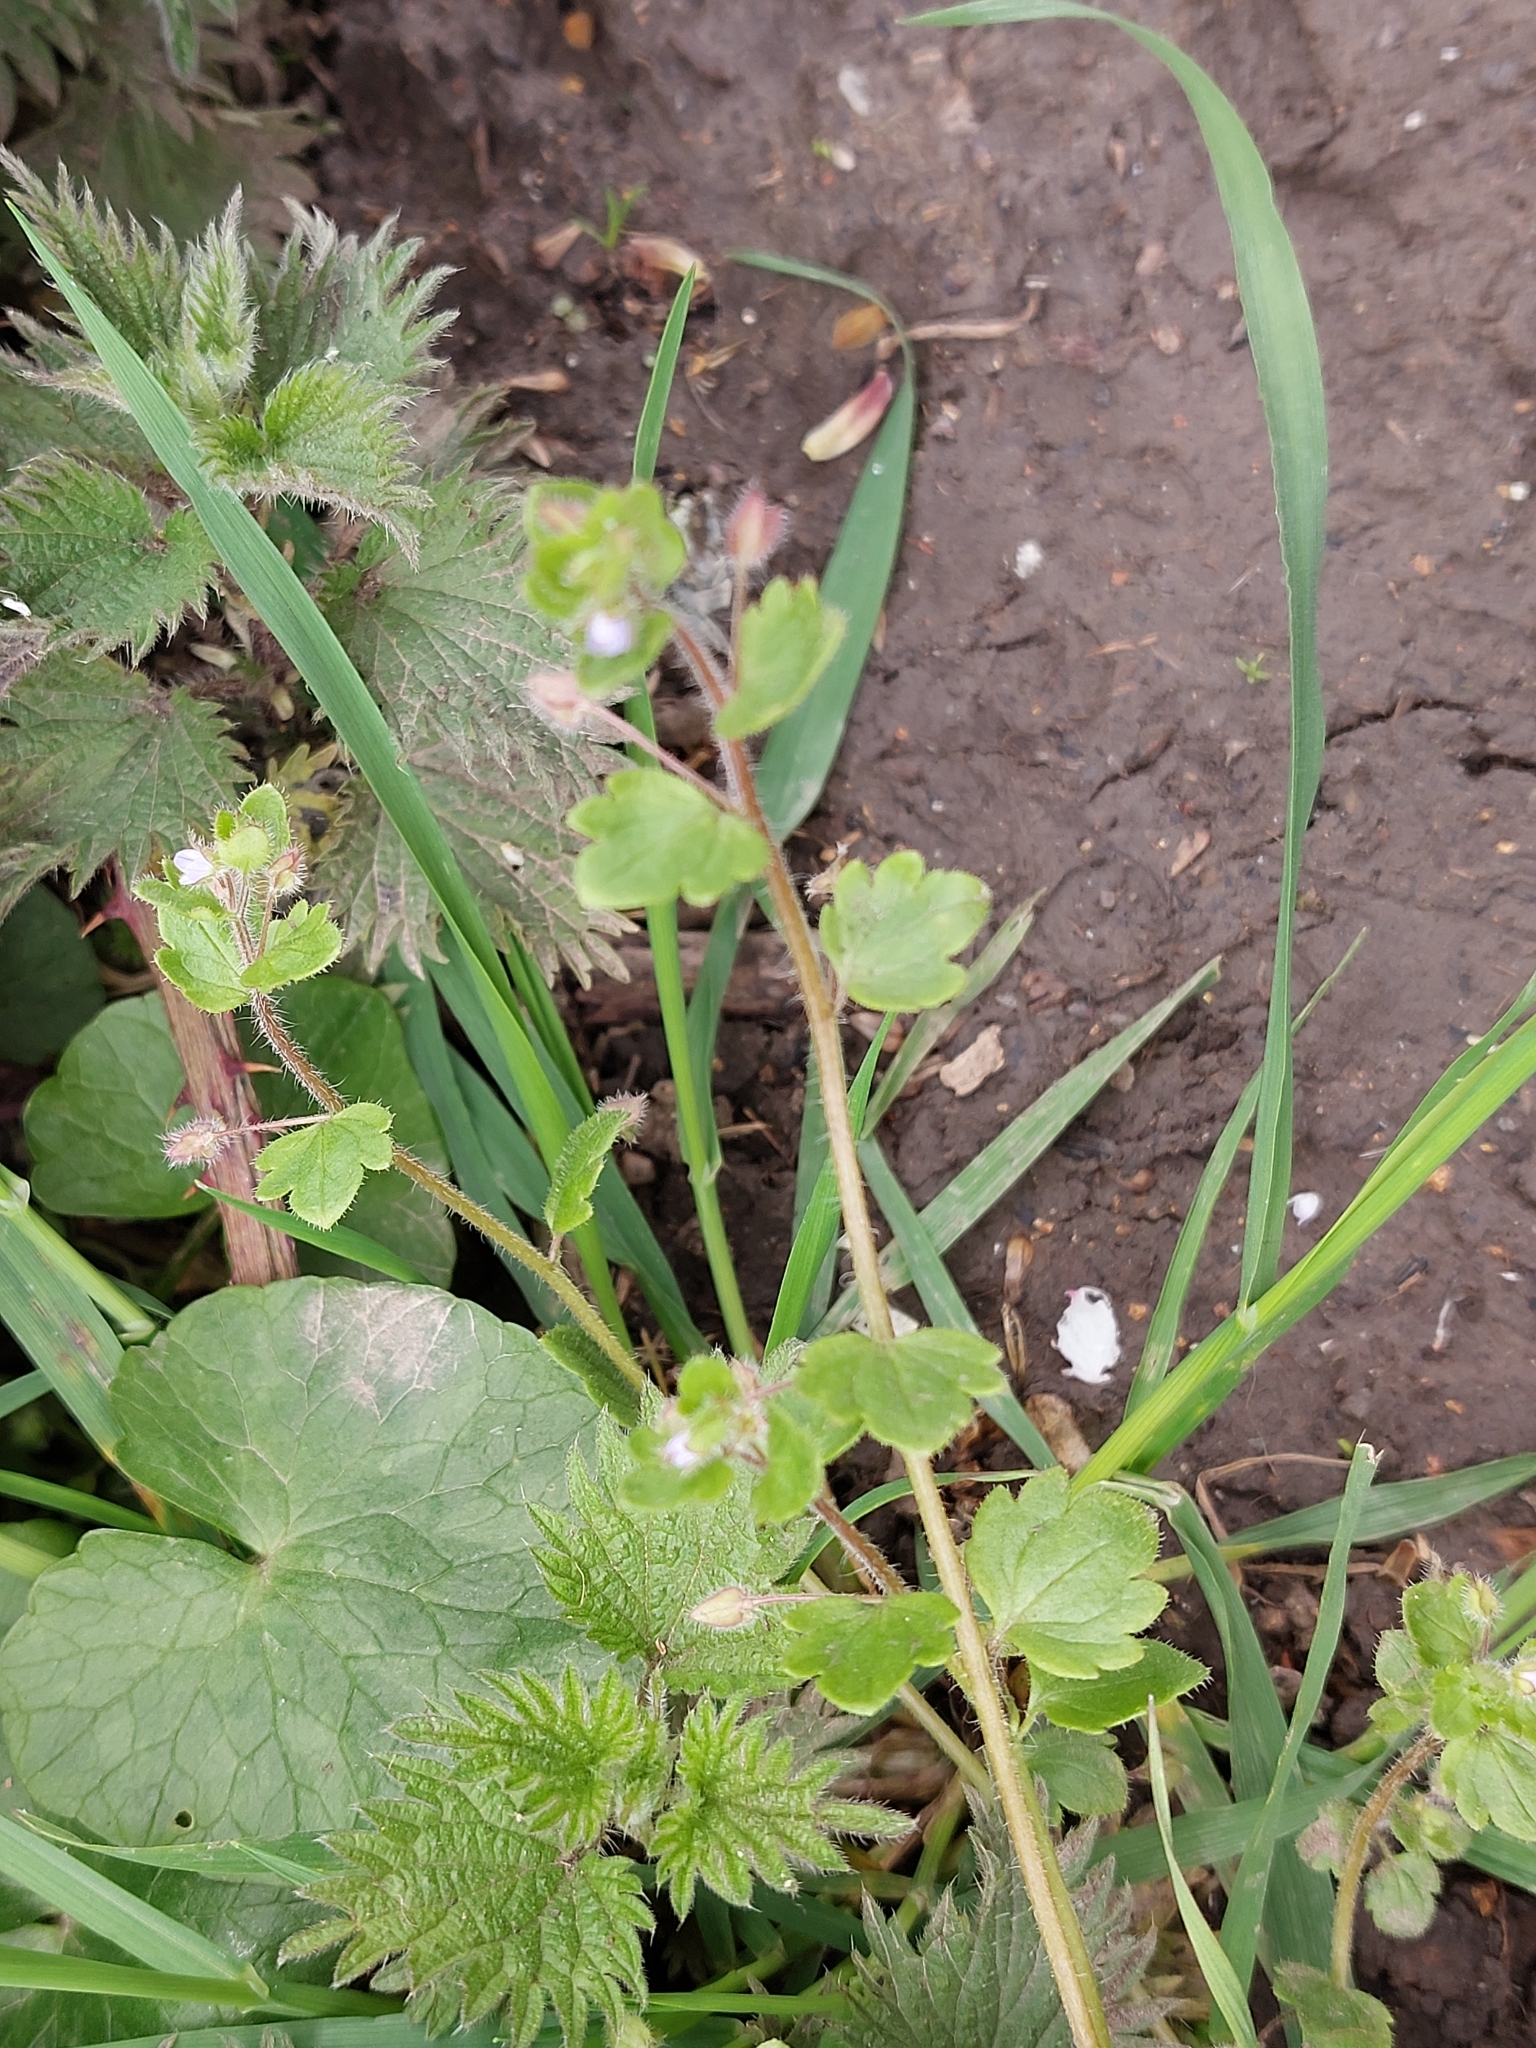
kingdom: Plantae
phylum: Tracheophyta
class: Magnoliopsida
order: Lamiales
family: Plantaginaceae
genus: Veronica
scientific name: Veronica sublobata
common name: False ivy-leaved speedwell
